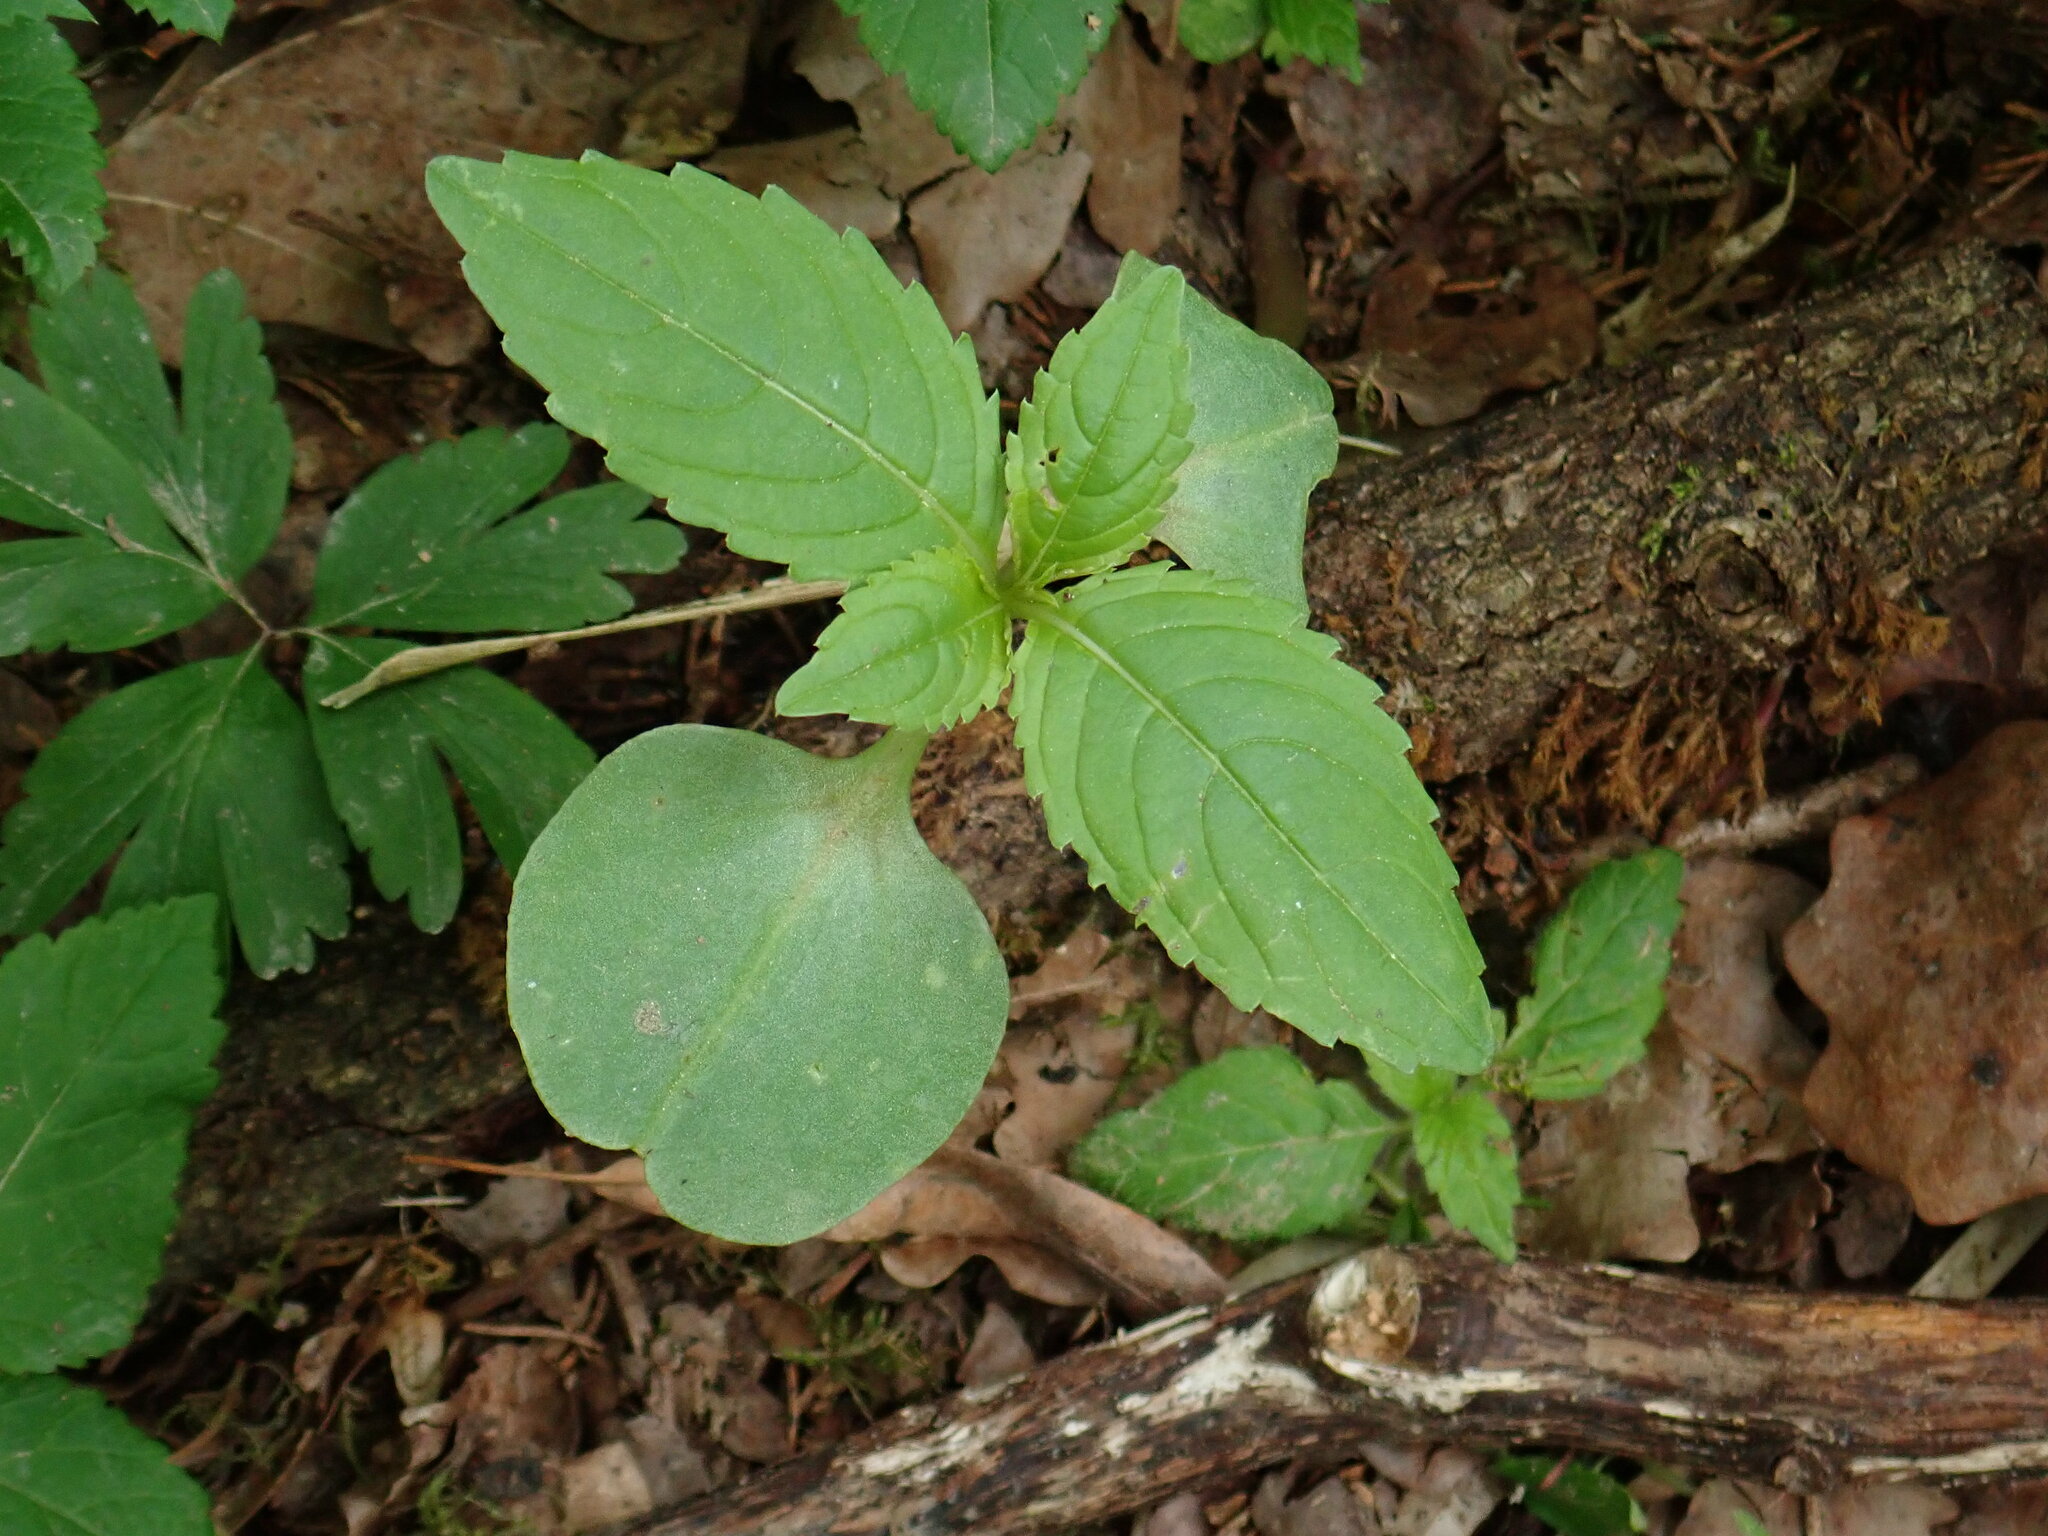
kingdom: Plantae
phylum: Tracheophyta
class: Magnoliopsida
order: Ericales
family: Balsaminaceae
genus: Impatiens
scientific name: Impatiens parviflora
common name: Small balsam
